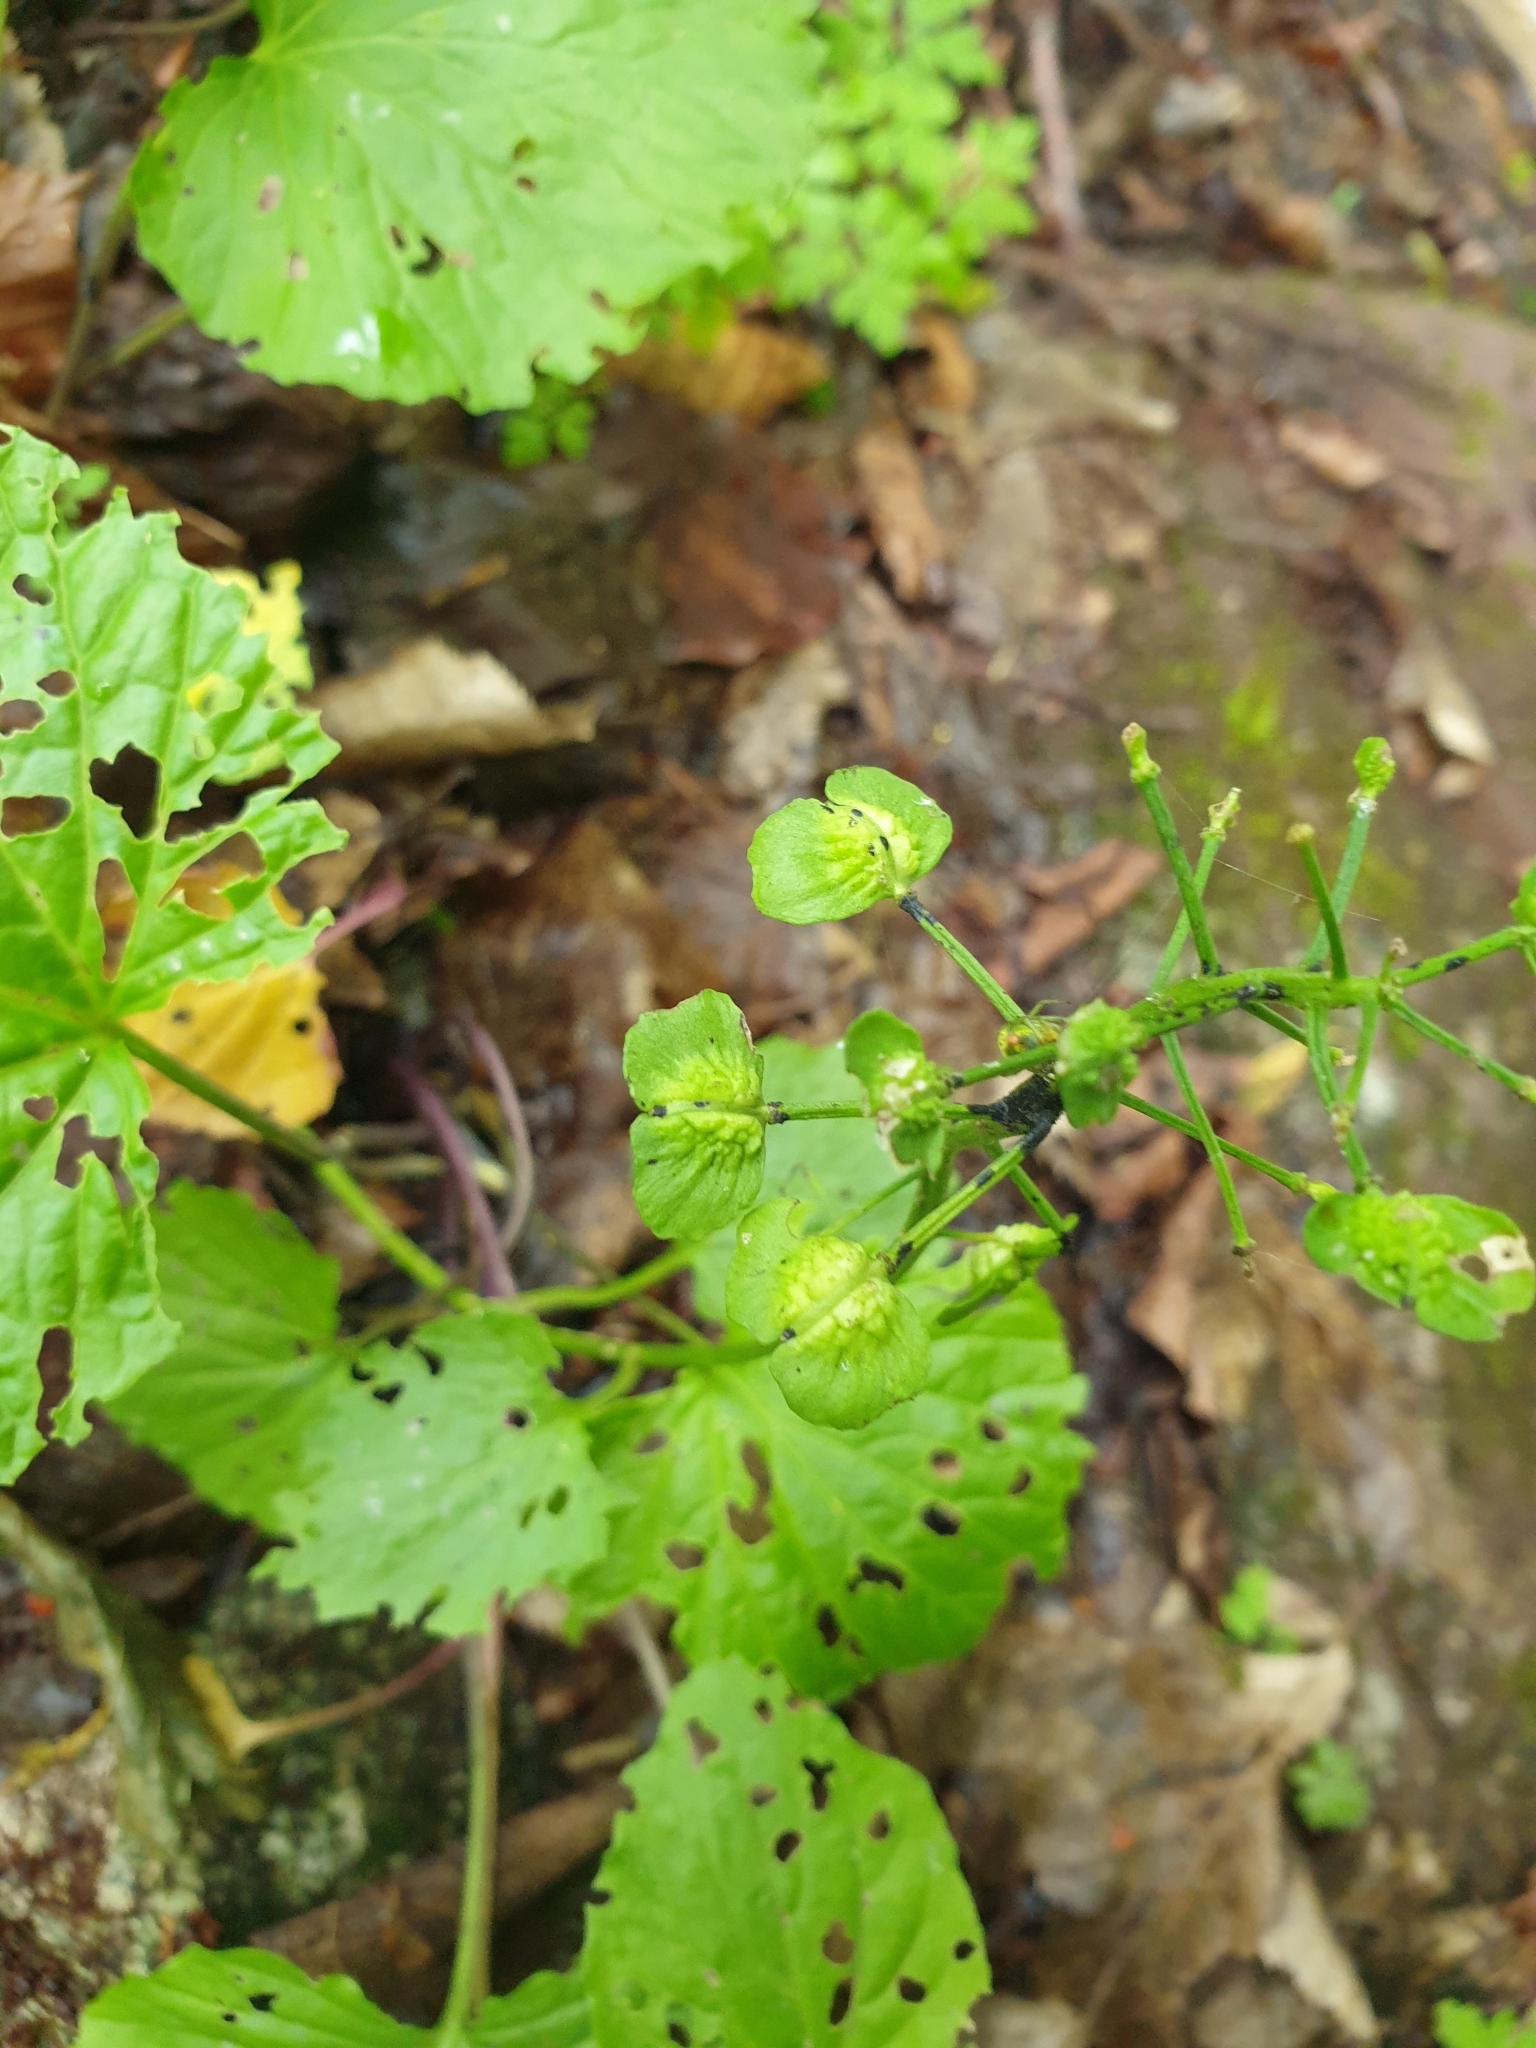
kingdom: Plantae
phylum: Tracheophyta
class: Magnoliopsida
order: Brassicales
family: Brassicaceae
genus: Pachyphragma
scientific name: Pachyphragma macrophyllum
